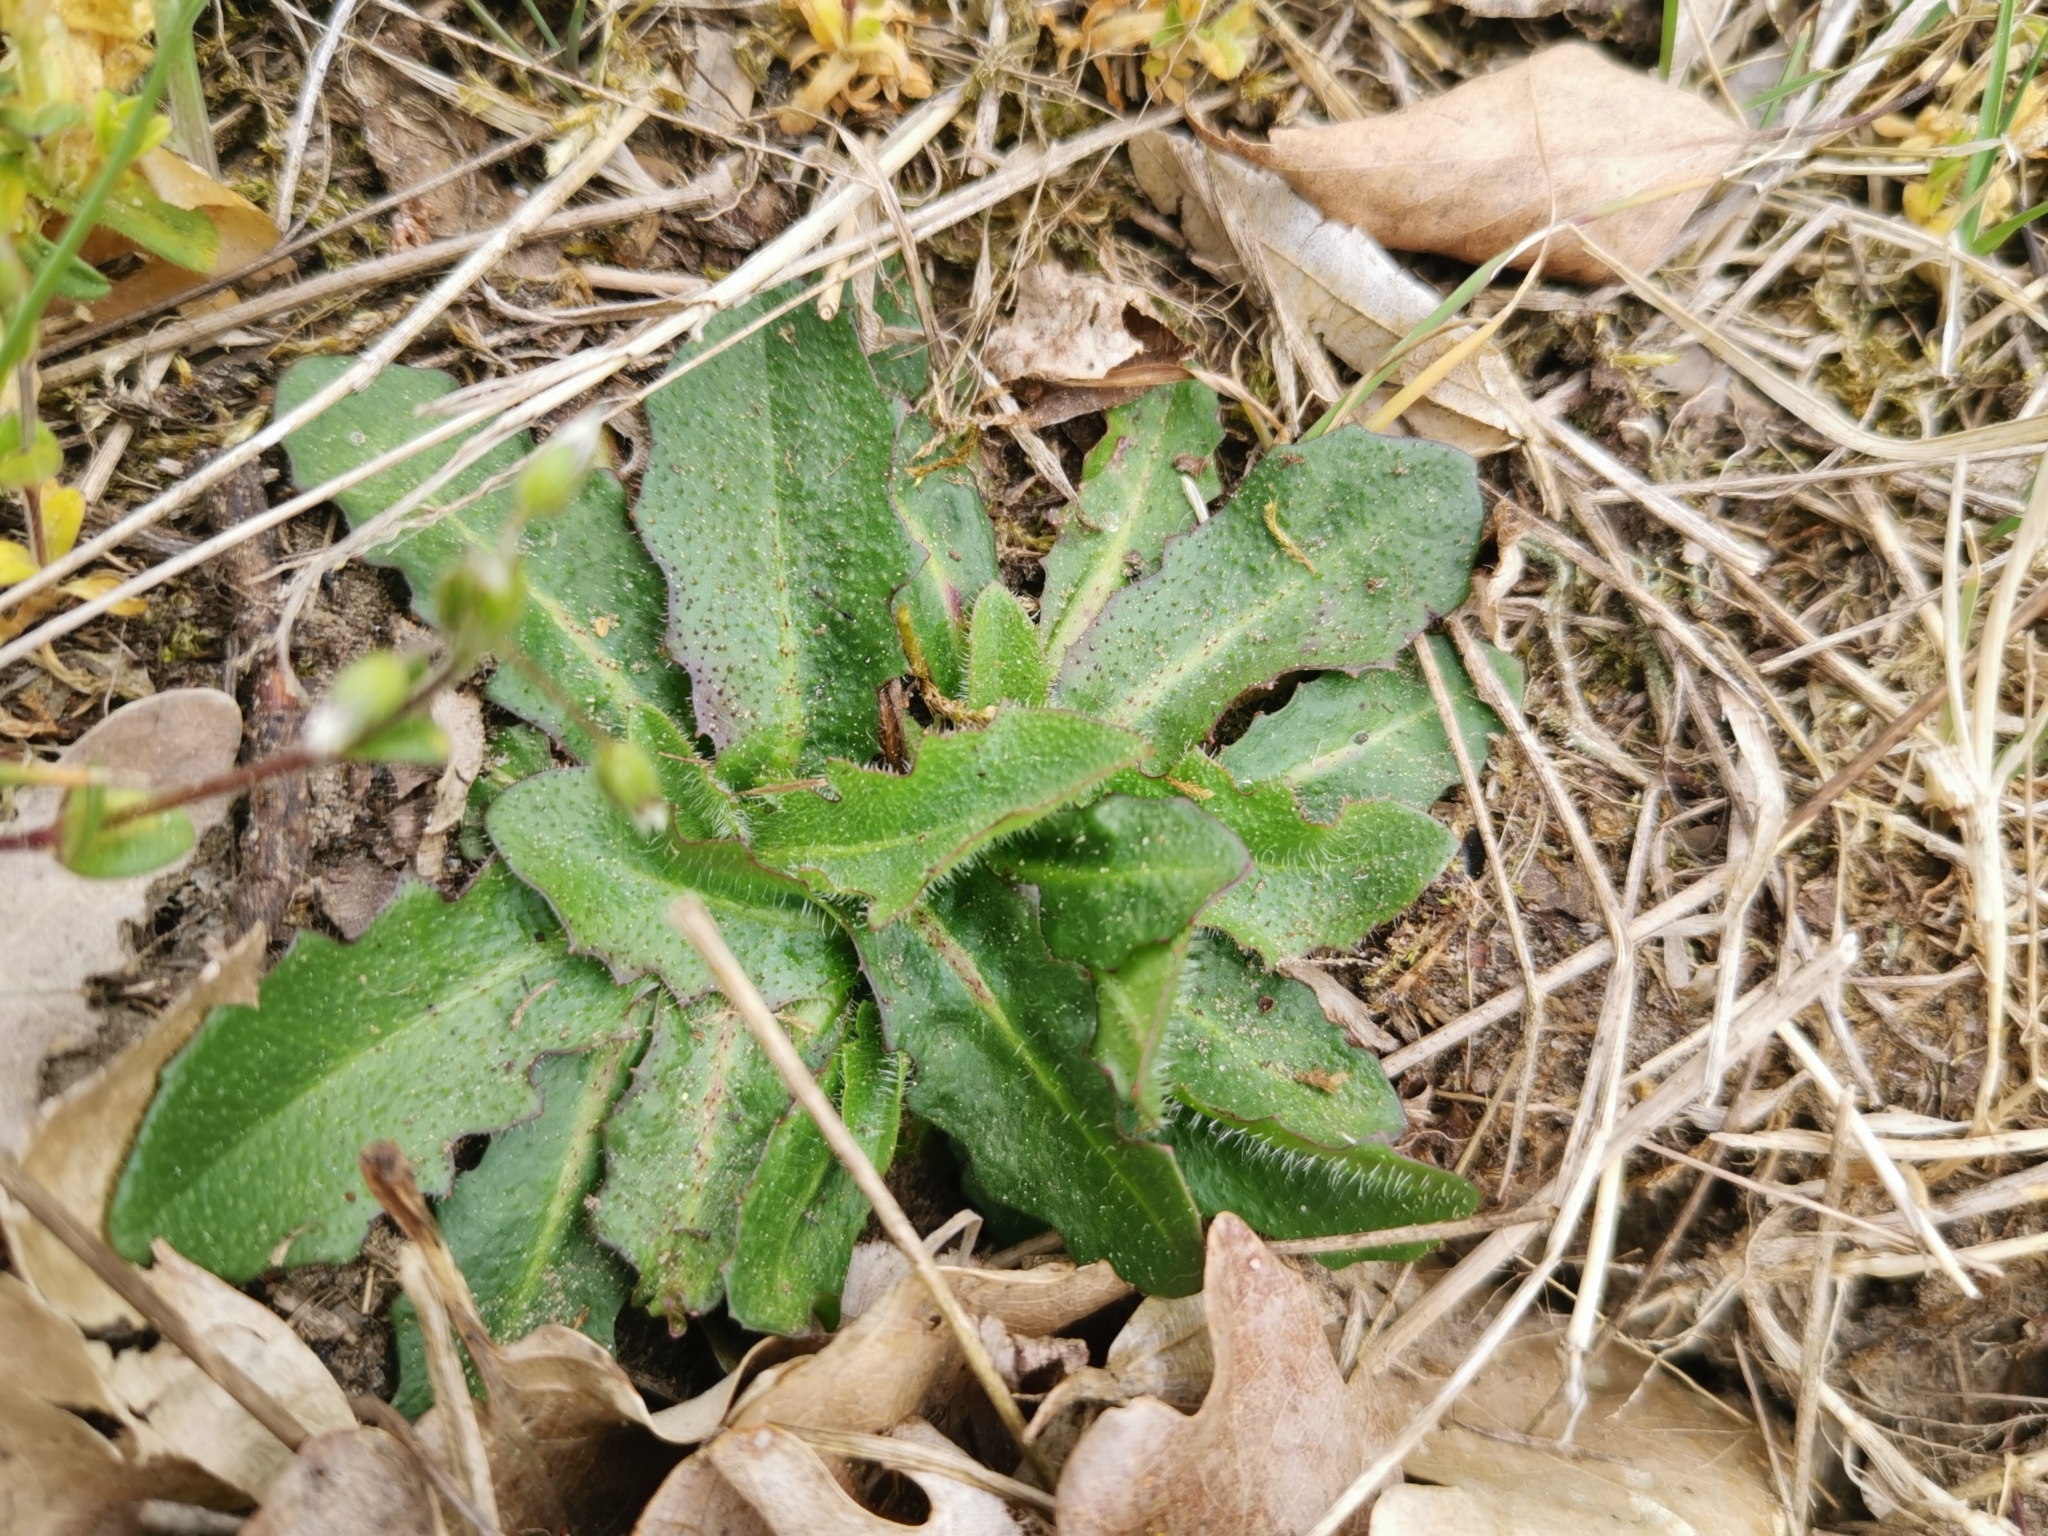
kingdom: Plantae
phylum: Tracheophyta
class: Magnoliopsida
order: Asterales
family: Asteraceae
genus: Hypochaeris
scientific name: Hypochaeris radicata
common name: Flatweed
